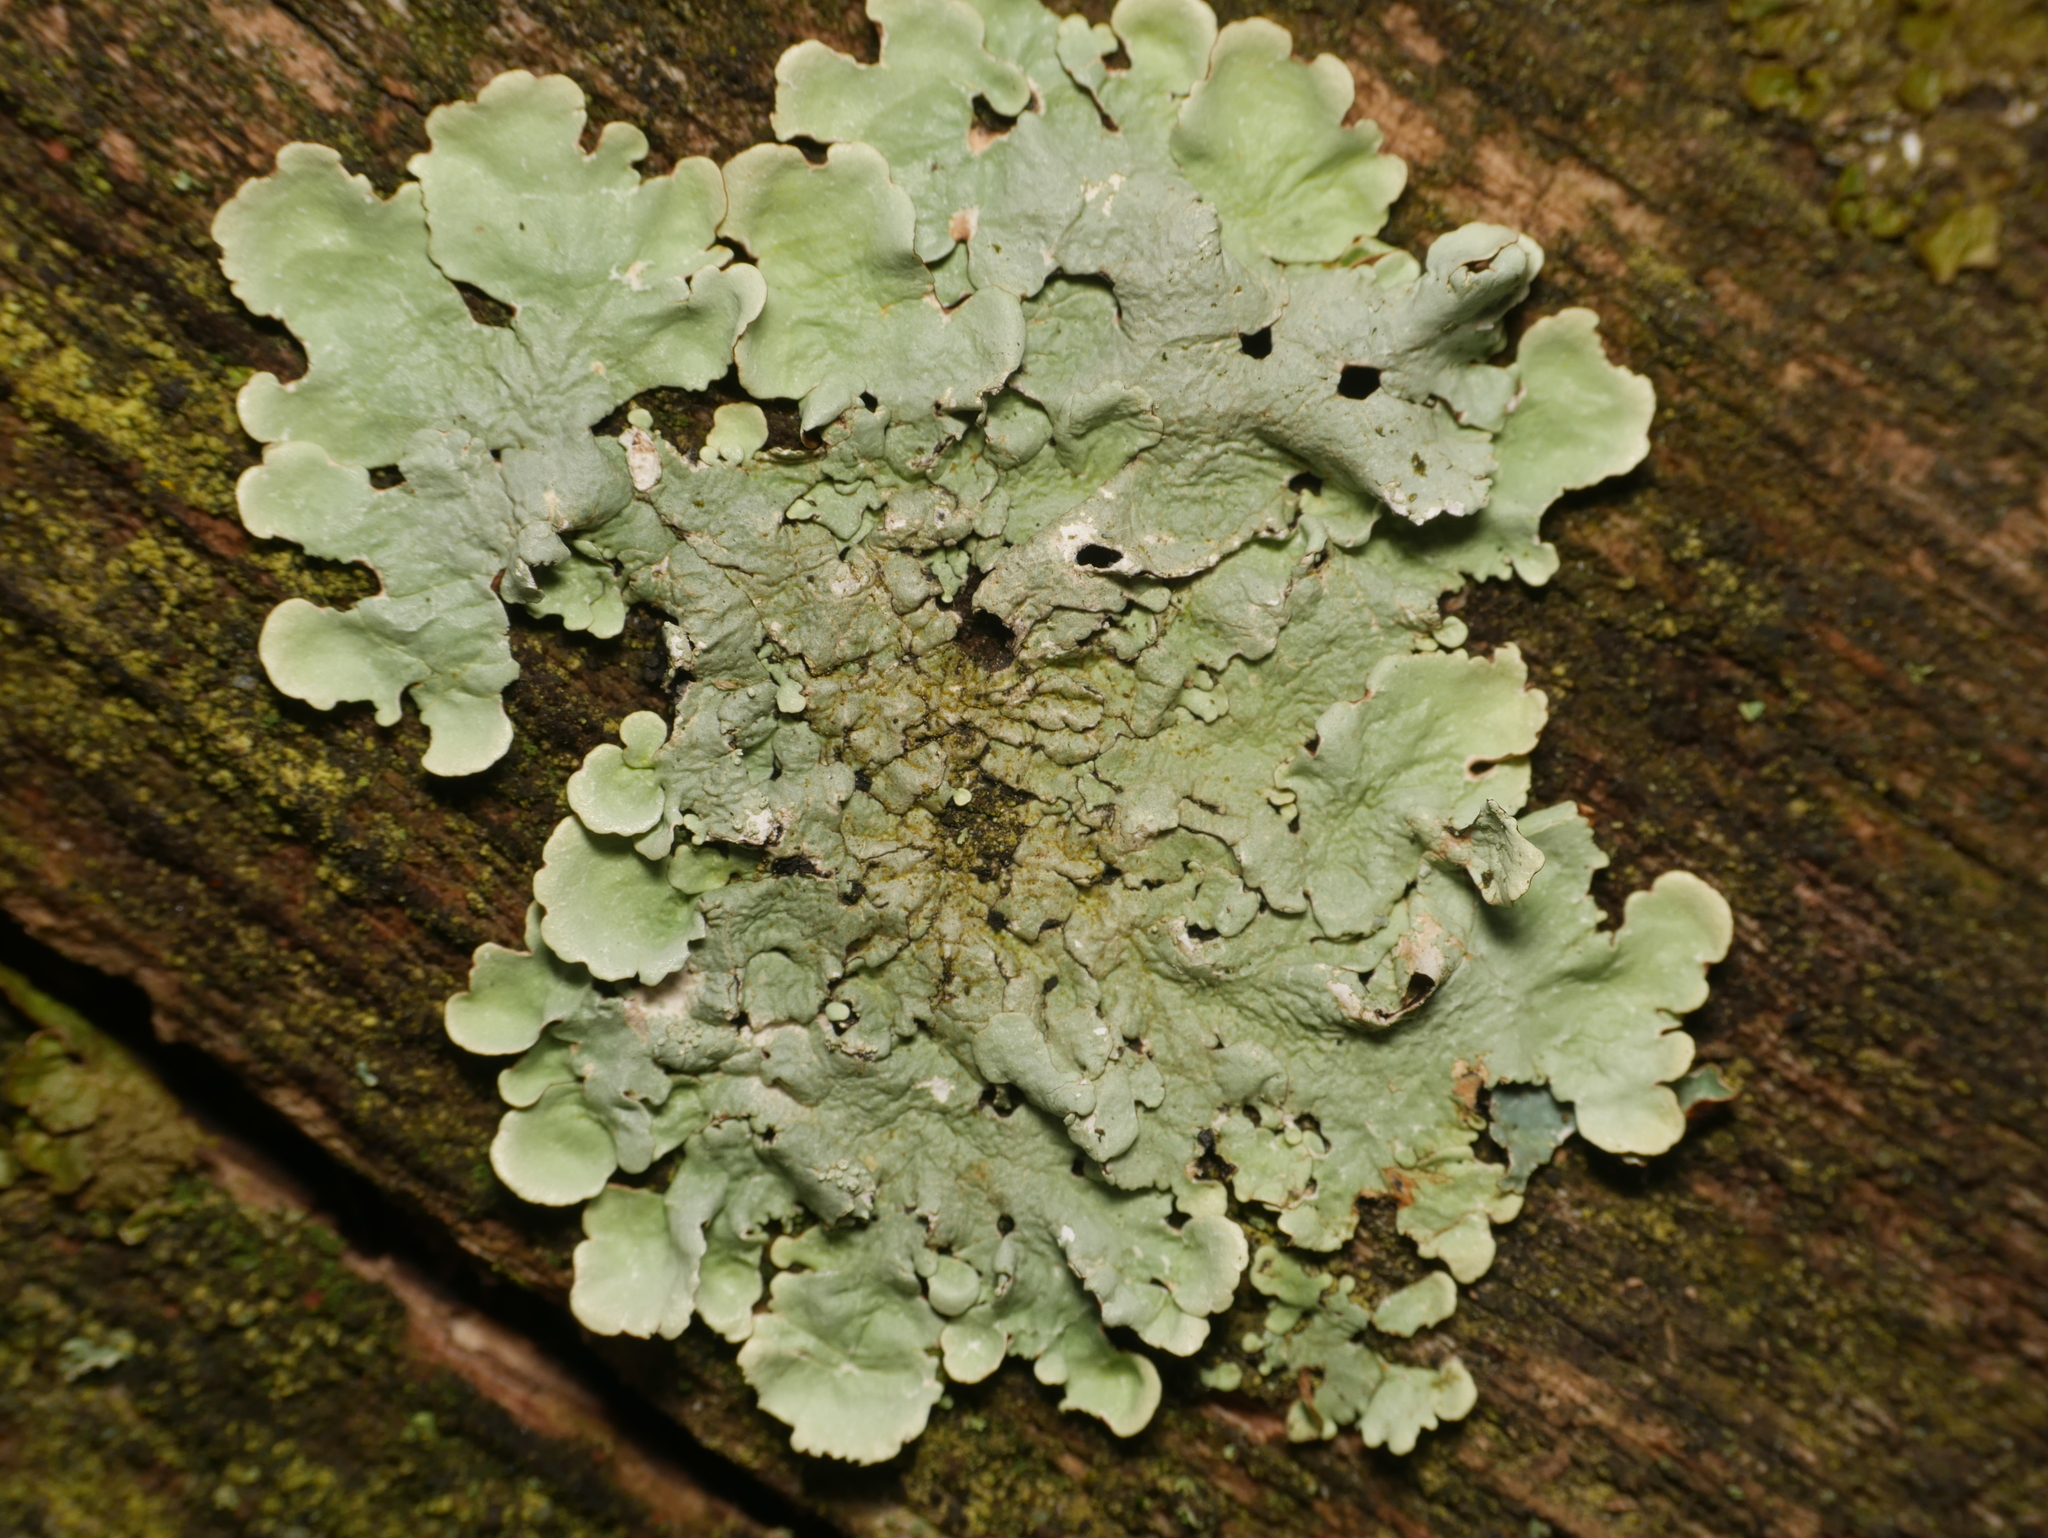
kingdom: Fungi
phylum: Ascomycota
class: Lecanoromycetes
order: Lecanorales
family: Parmeliaceae
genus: Flavoparmelia
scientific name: Flavoparmelia caperata
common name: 40-mile per hour lichen
